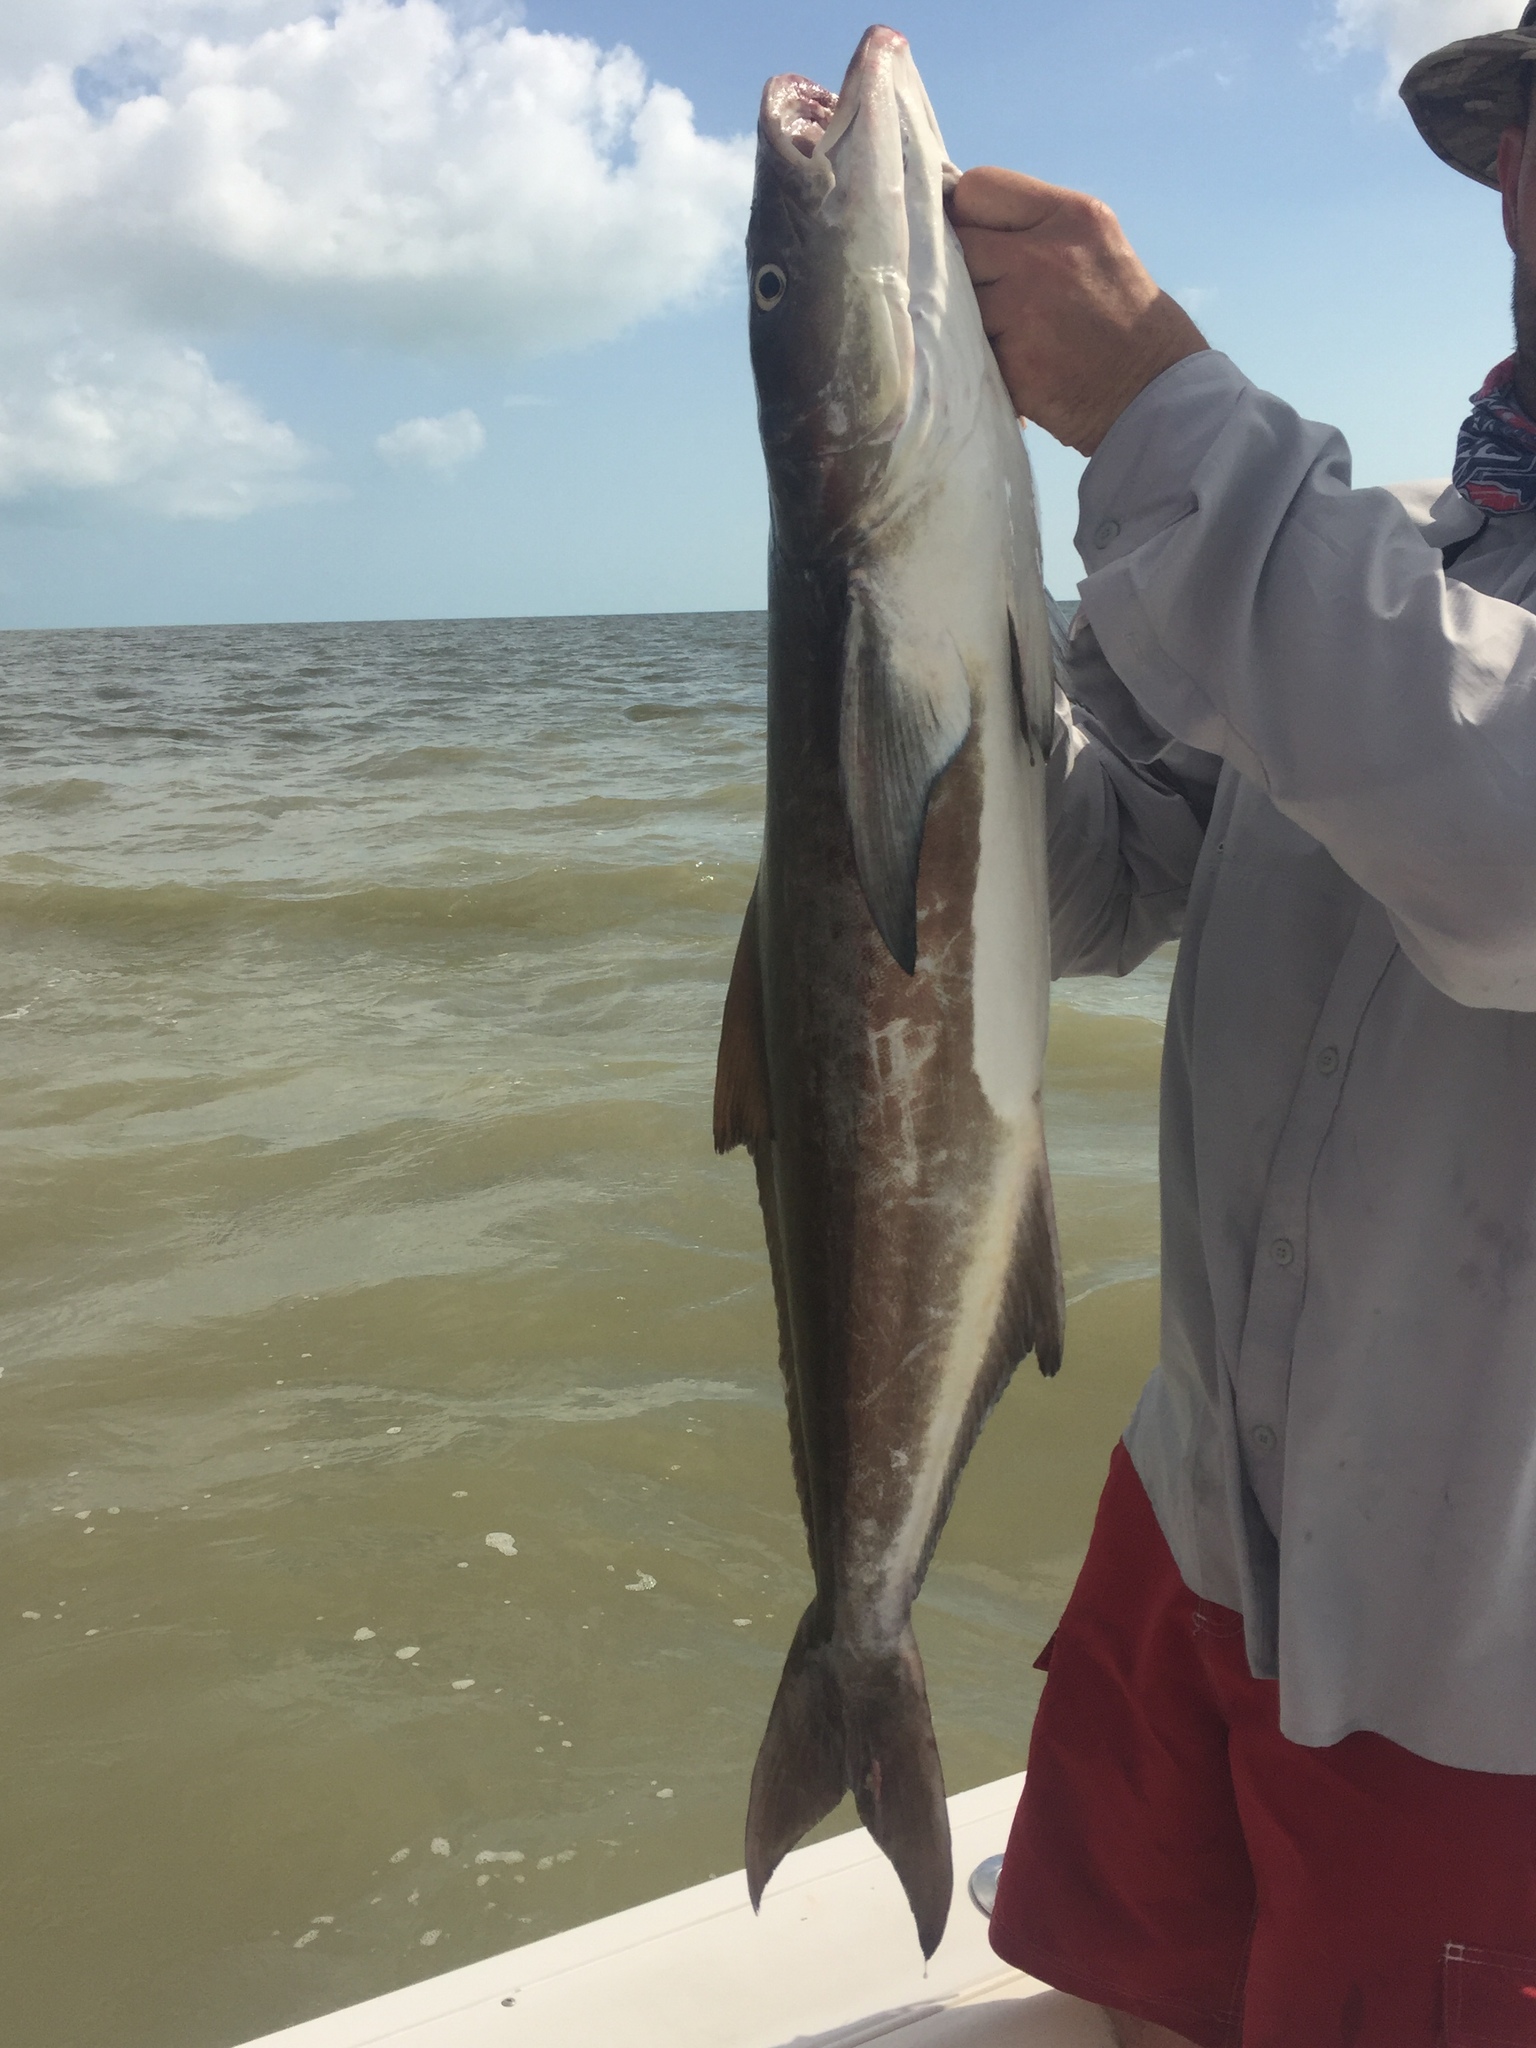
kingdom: Animalia
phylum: Chordata
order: Perciformes
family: Rachycentridae
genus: Rachycentron
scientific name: Rachycentron canadum
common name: Cobia
